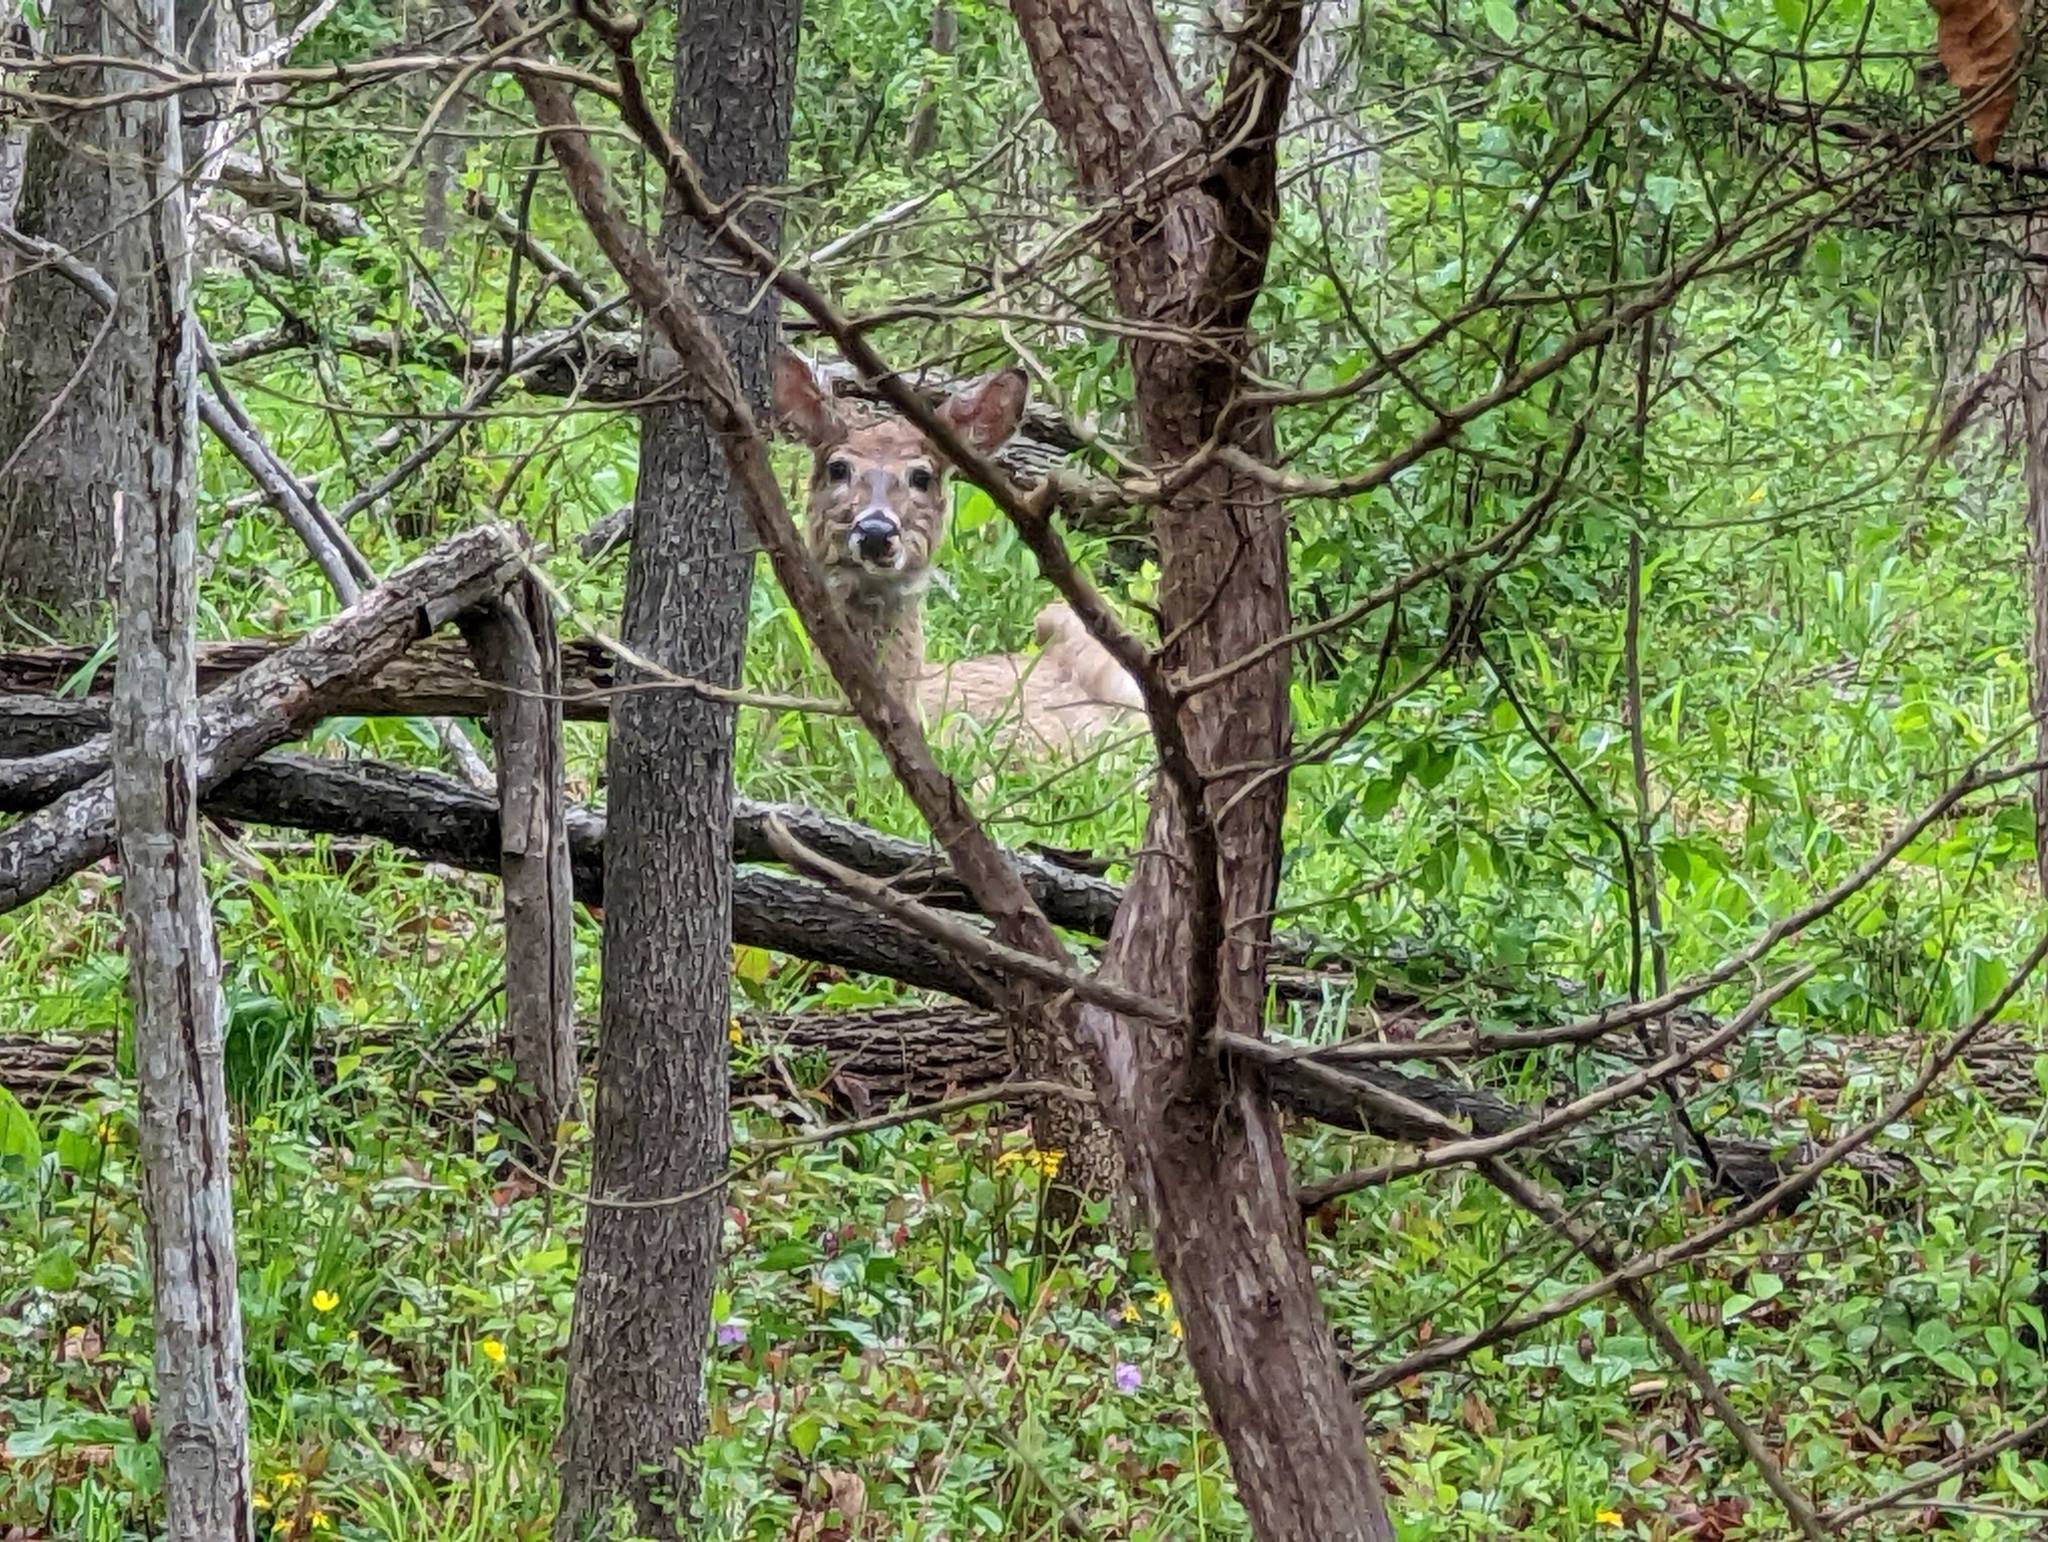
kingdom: Animalia
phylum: Chordata
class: Mammalia
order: Artiodactyla
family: Cervidae
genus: Odocoileus
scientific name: Odocoileus virginianus
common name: White-tailed deer
